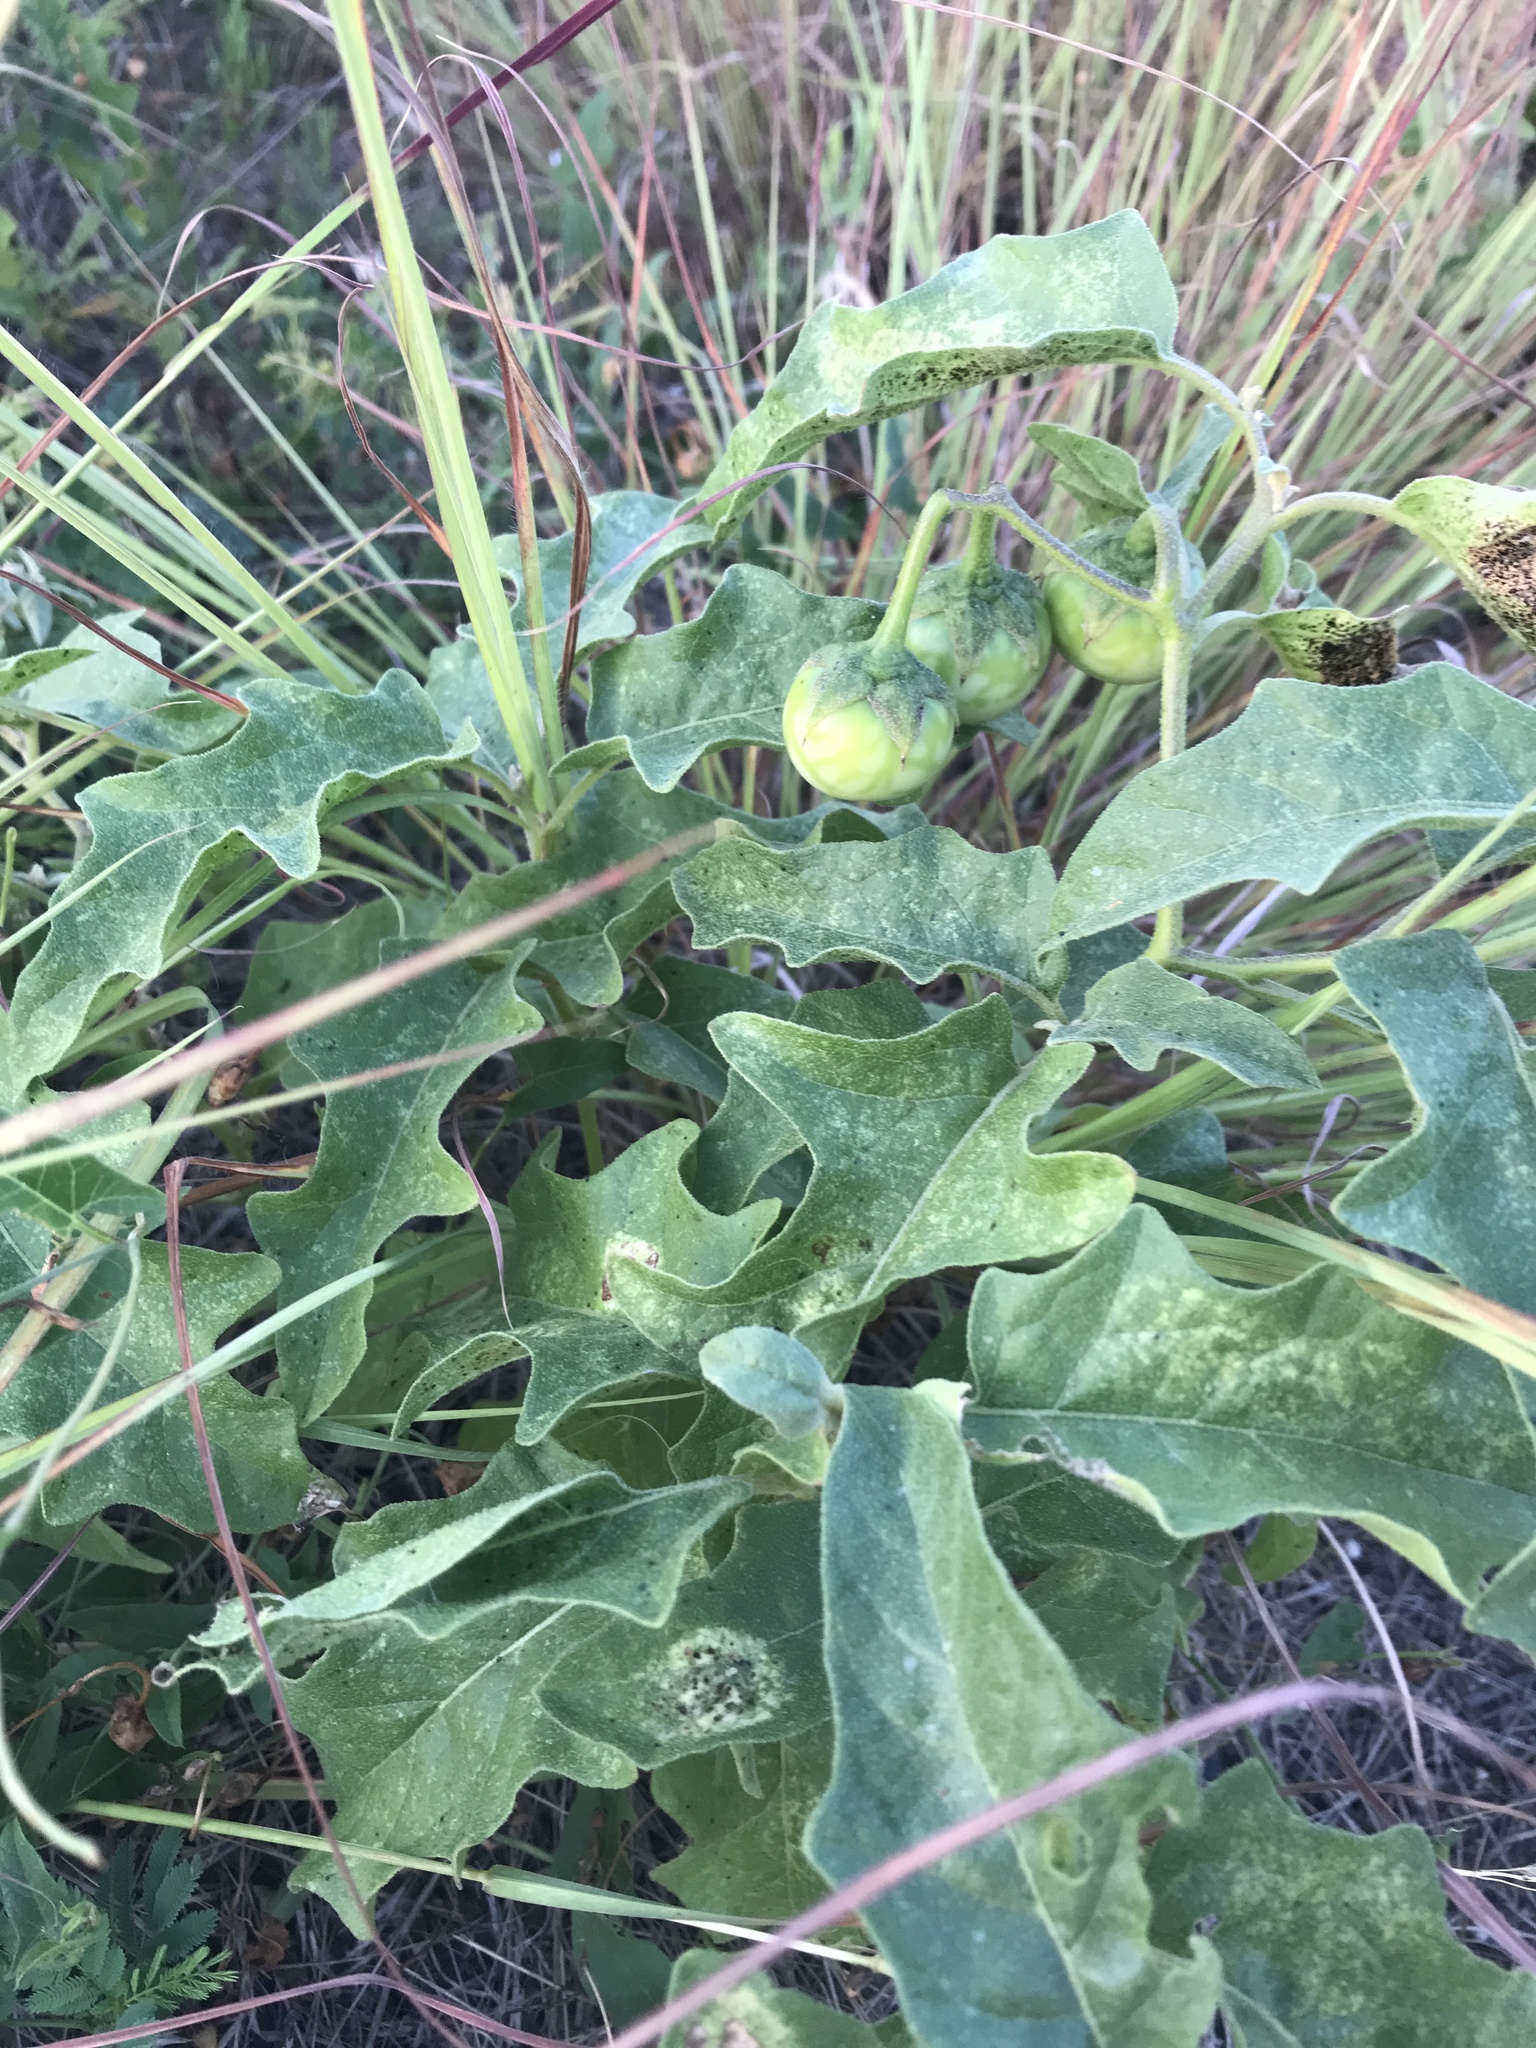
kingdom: Plantae
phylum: Tracheophyta
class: Magnoliopsida
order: Solanales
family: Solanaceae
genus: Solanum
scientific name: Solanum dimidiatum
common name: Carolina horse-nettle
